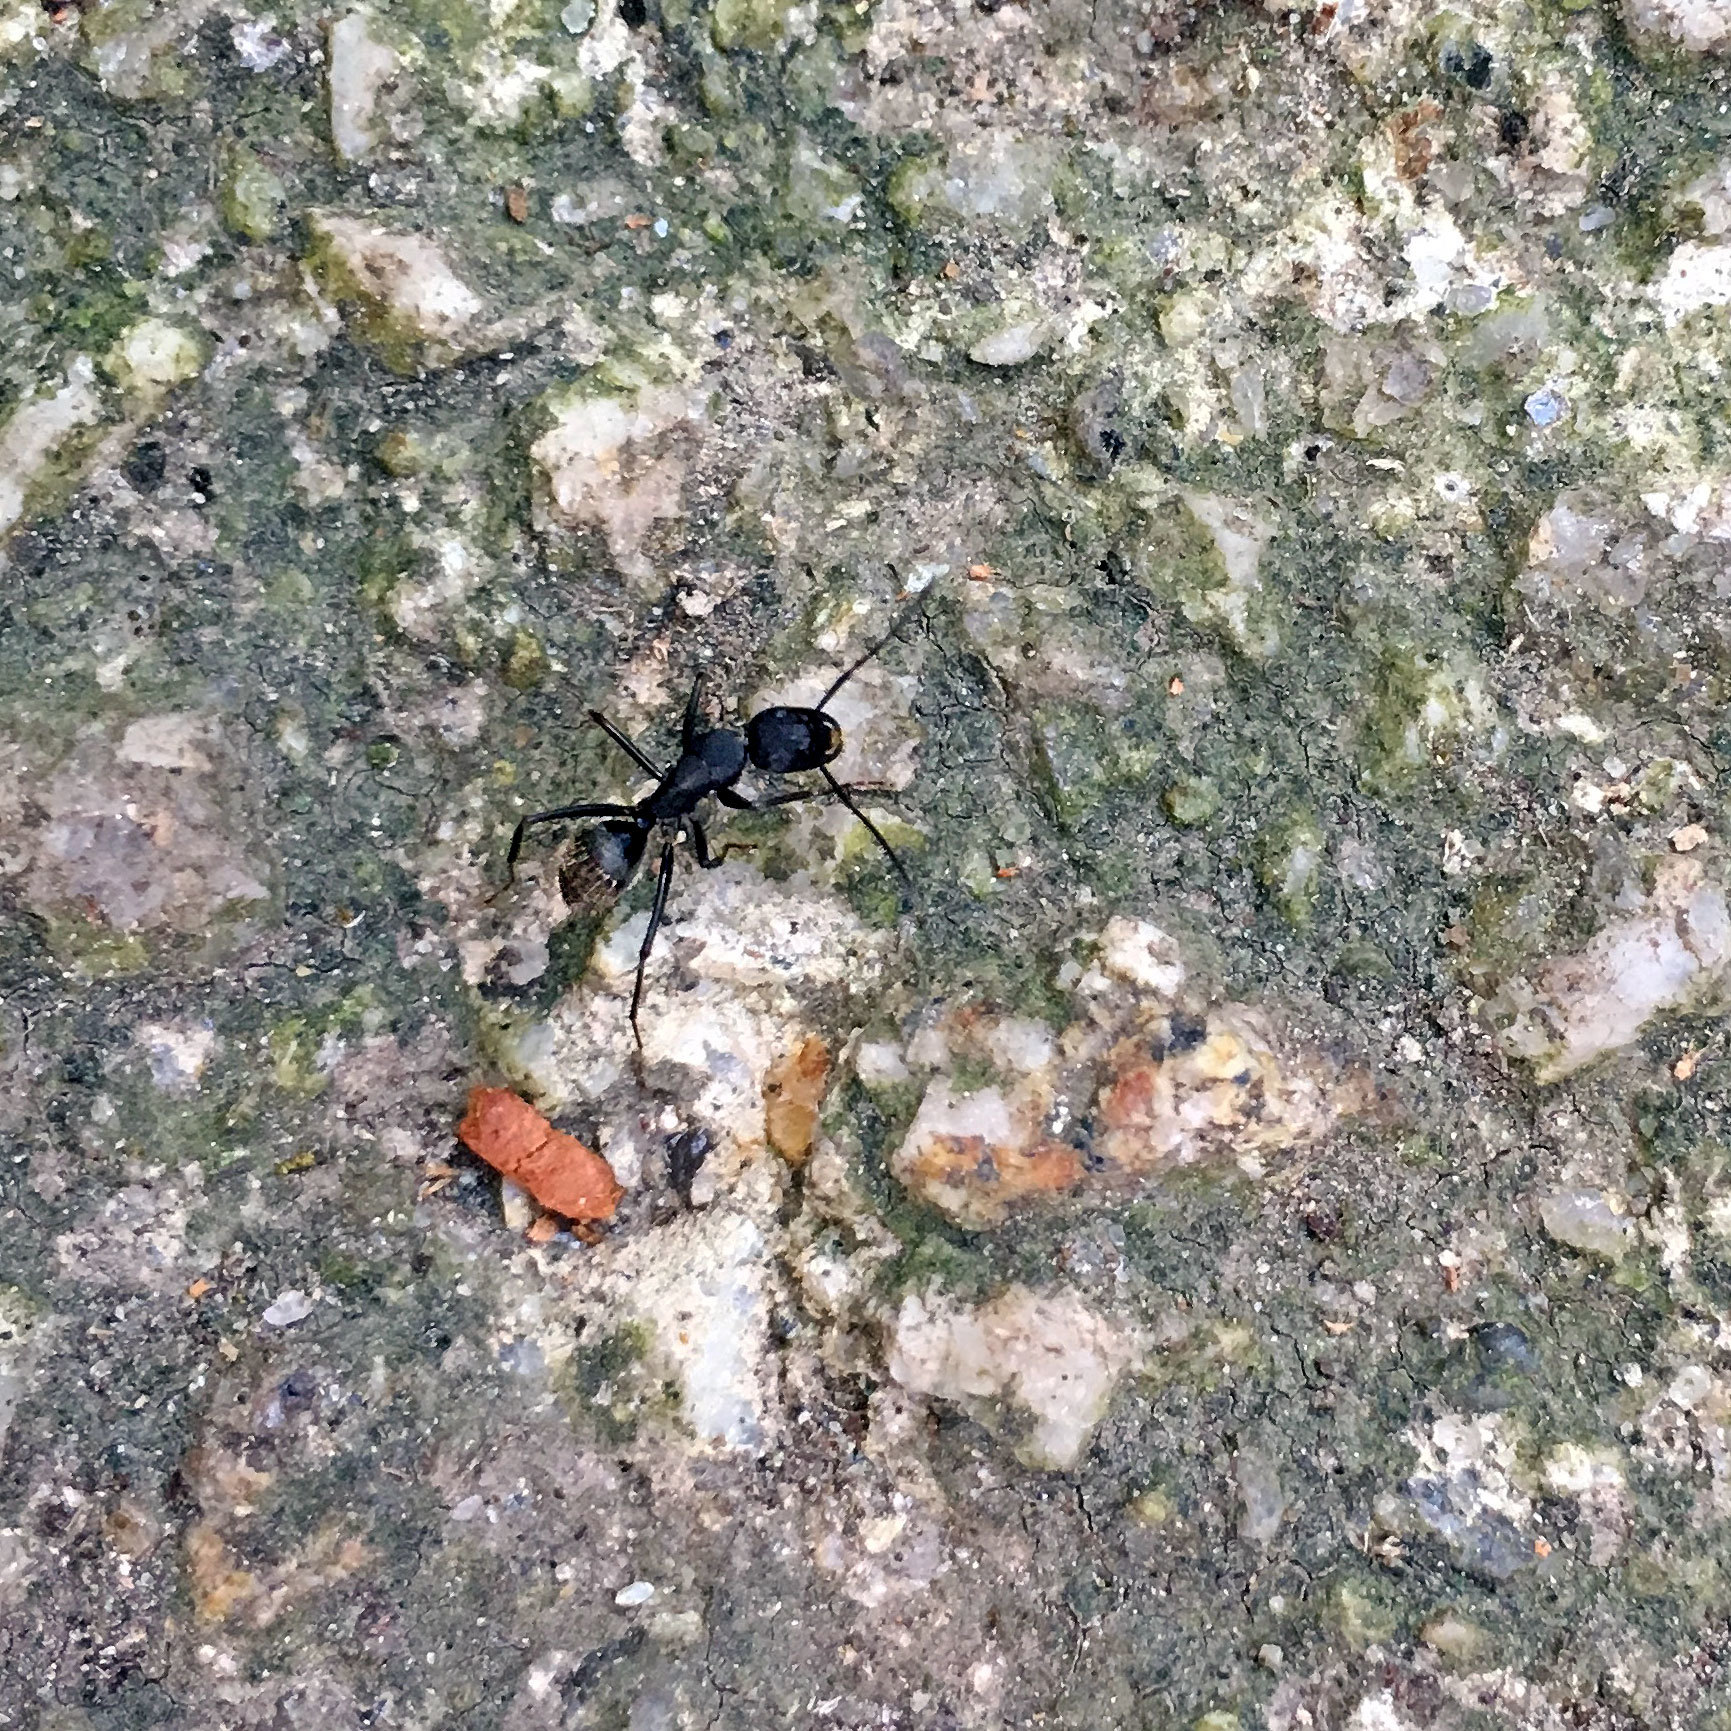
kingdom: Animalia
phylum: Arthropoda
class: Insecta
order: Hymenoptera
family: Formicidae
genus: Camponotus
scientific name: Camponotus japonicus
